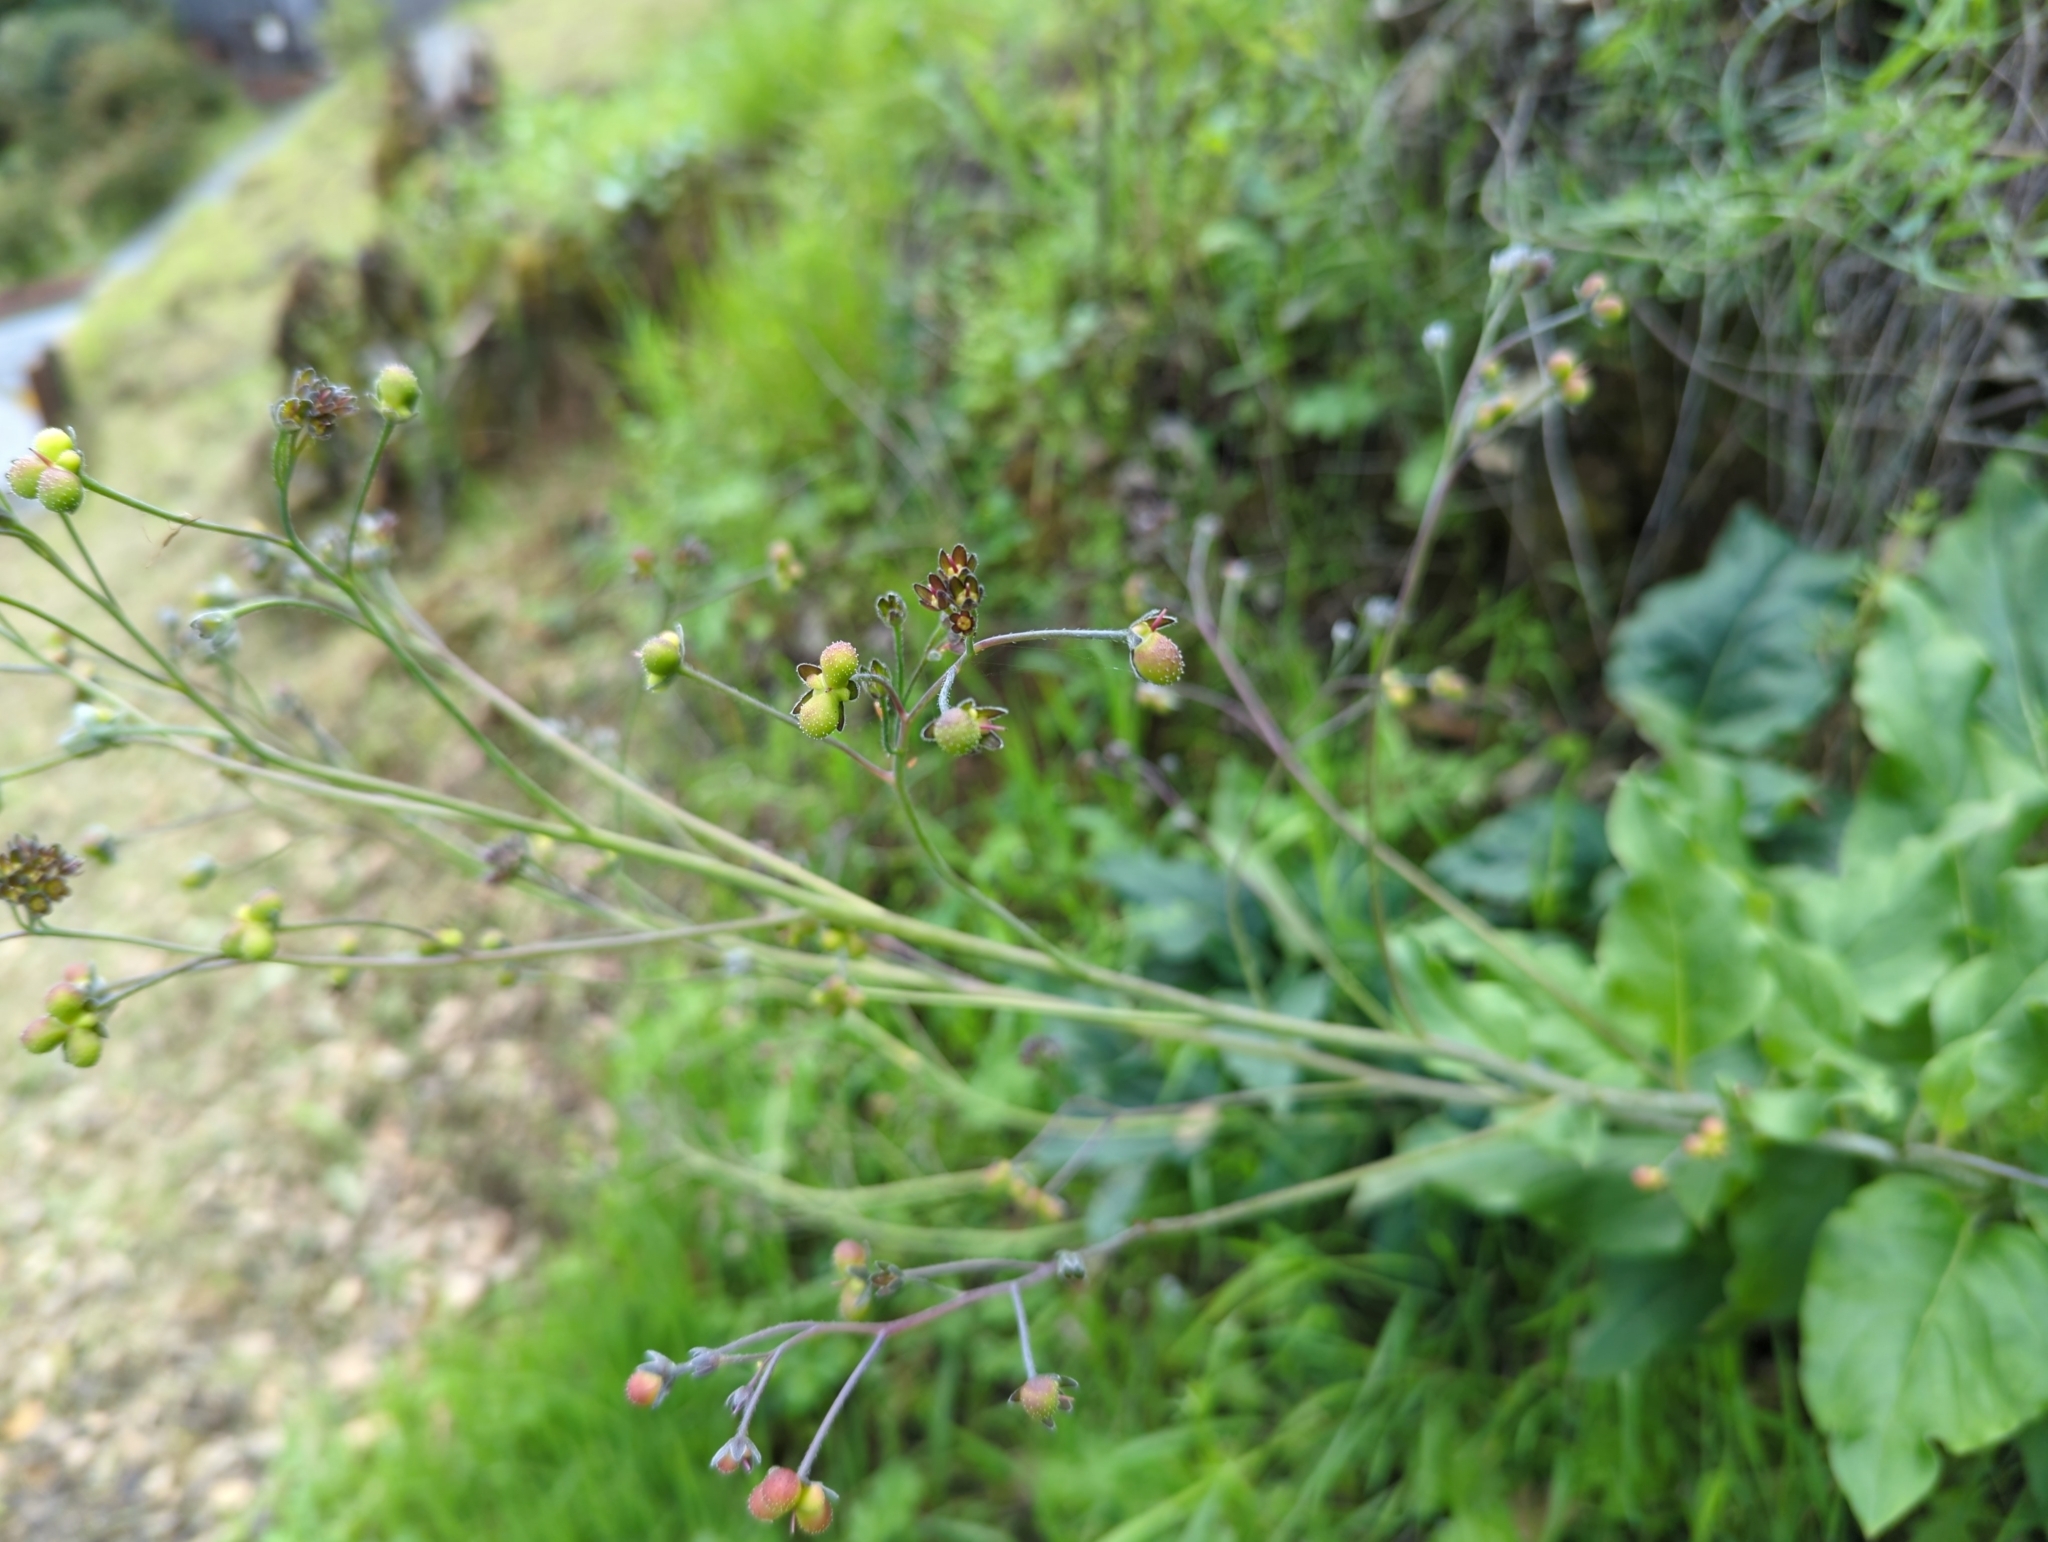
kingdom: Plantae
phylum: Tracheophyta
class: Magnoliopsida
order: Boraginales
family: Boraginaceae
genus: Adelinia
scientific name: Adelinia grande
